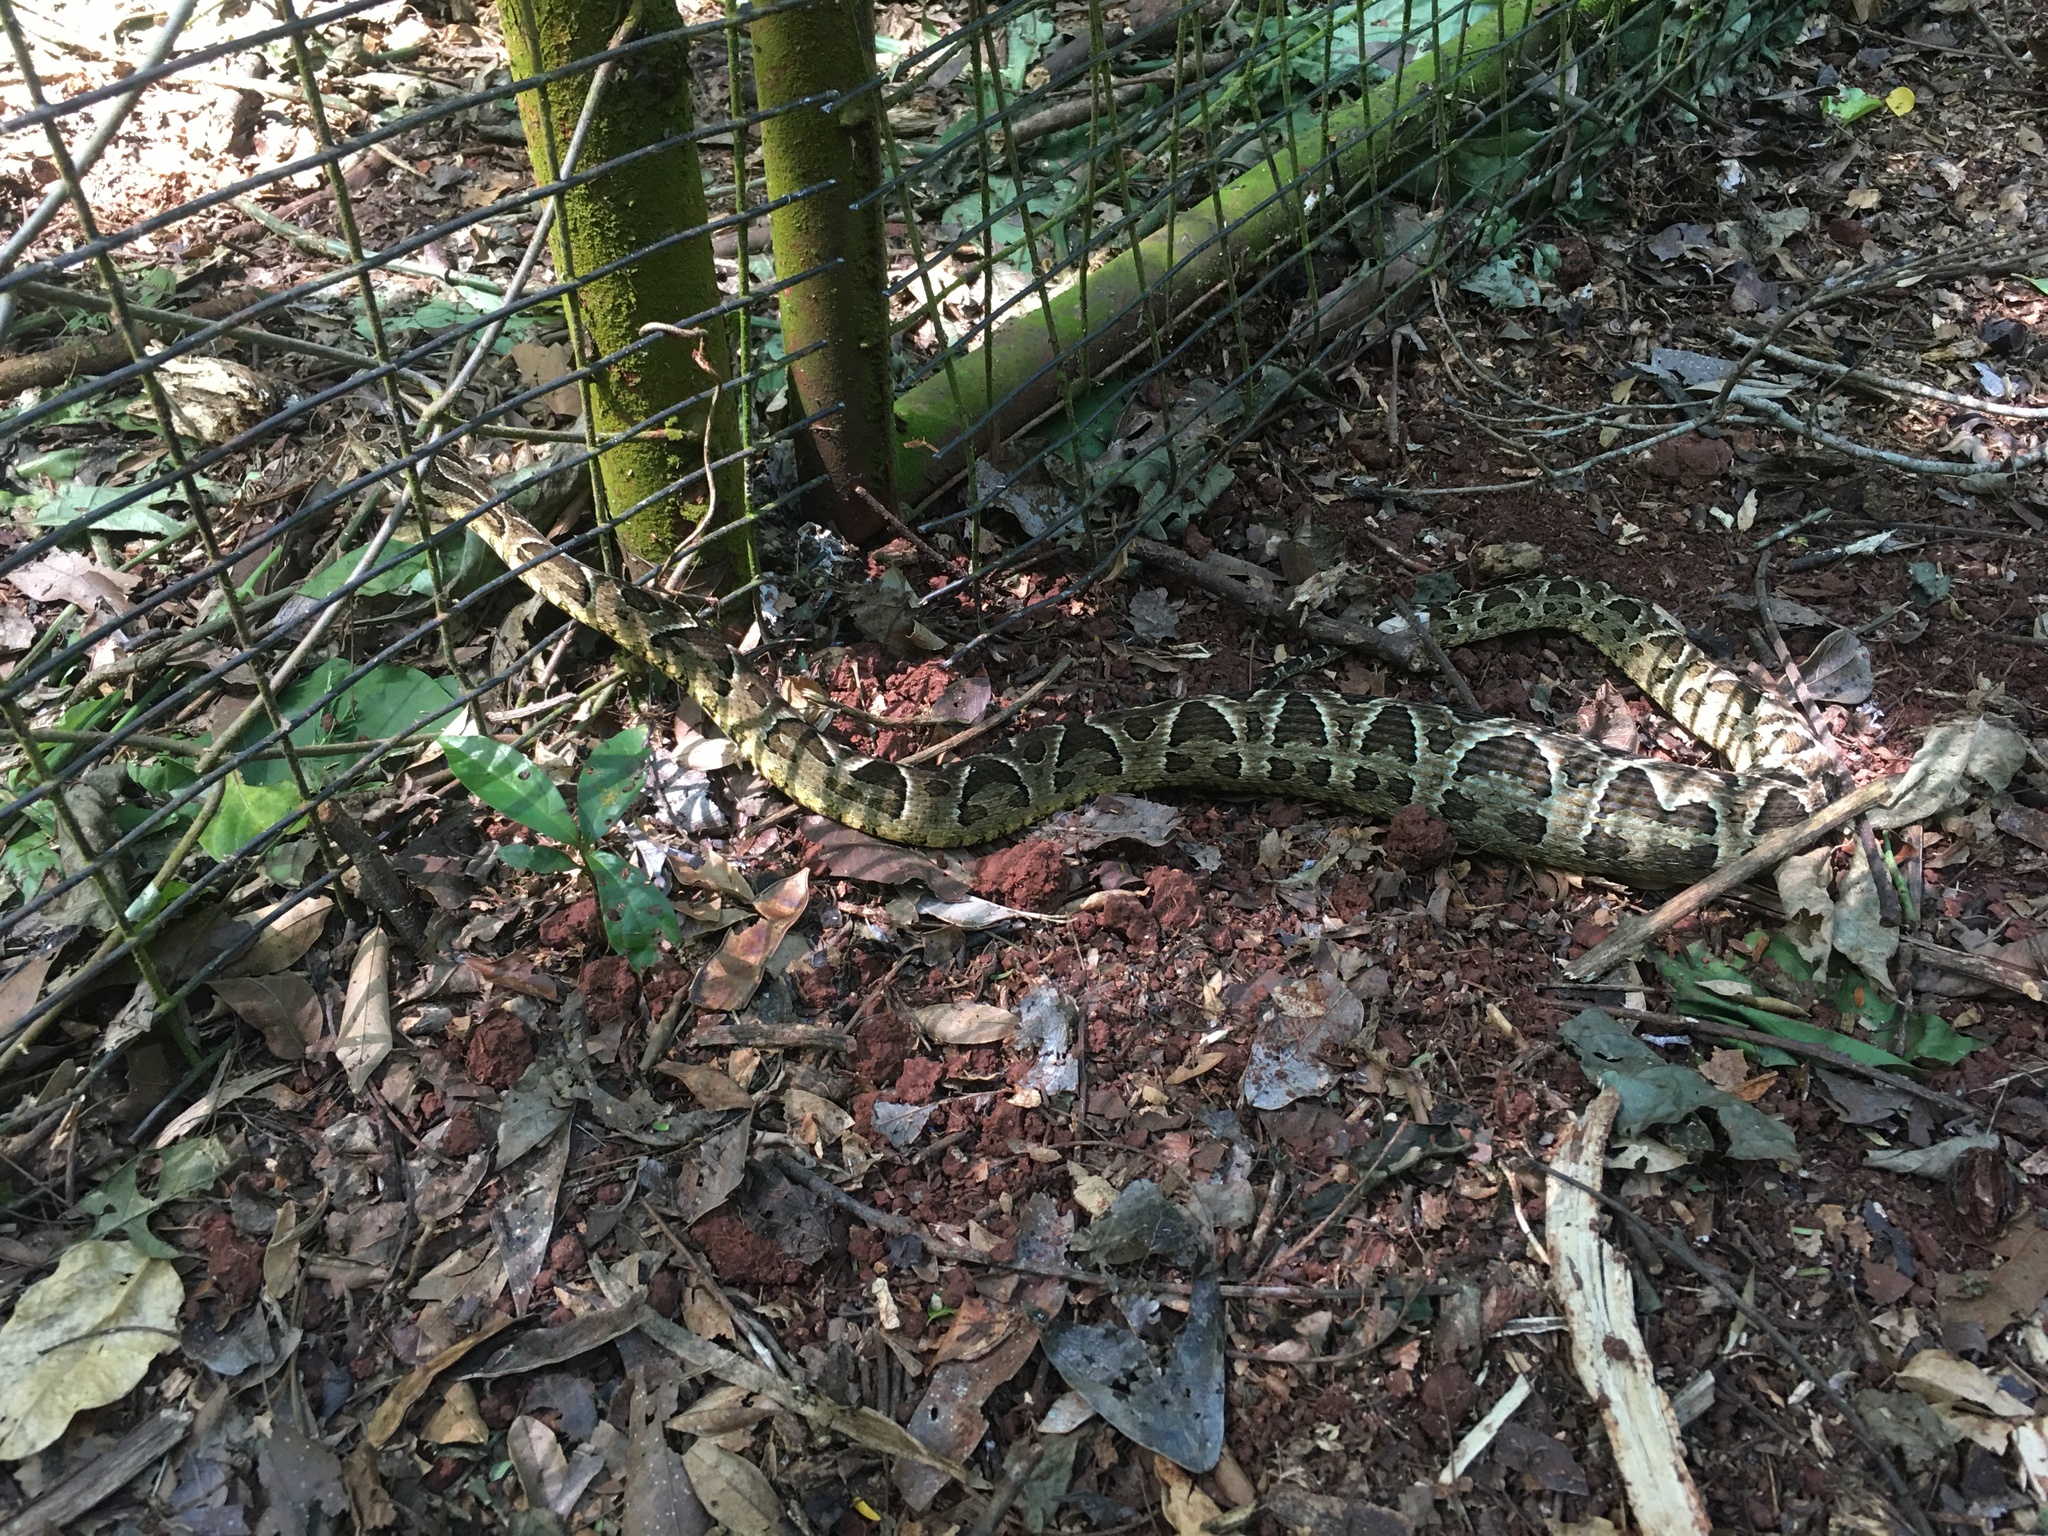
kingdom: Animalia
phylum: Chordata
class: Squamata
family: Viperidae
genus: Bothrops
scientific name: Bothrops diporus
